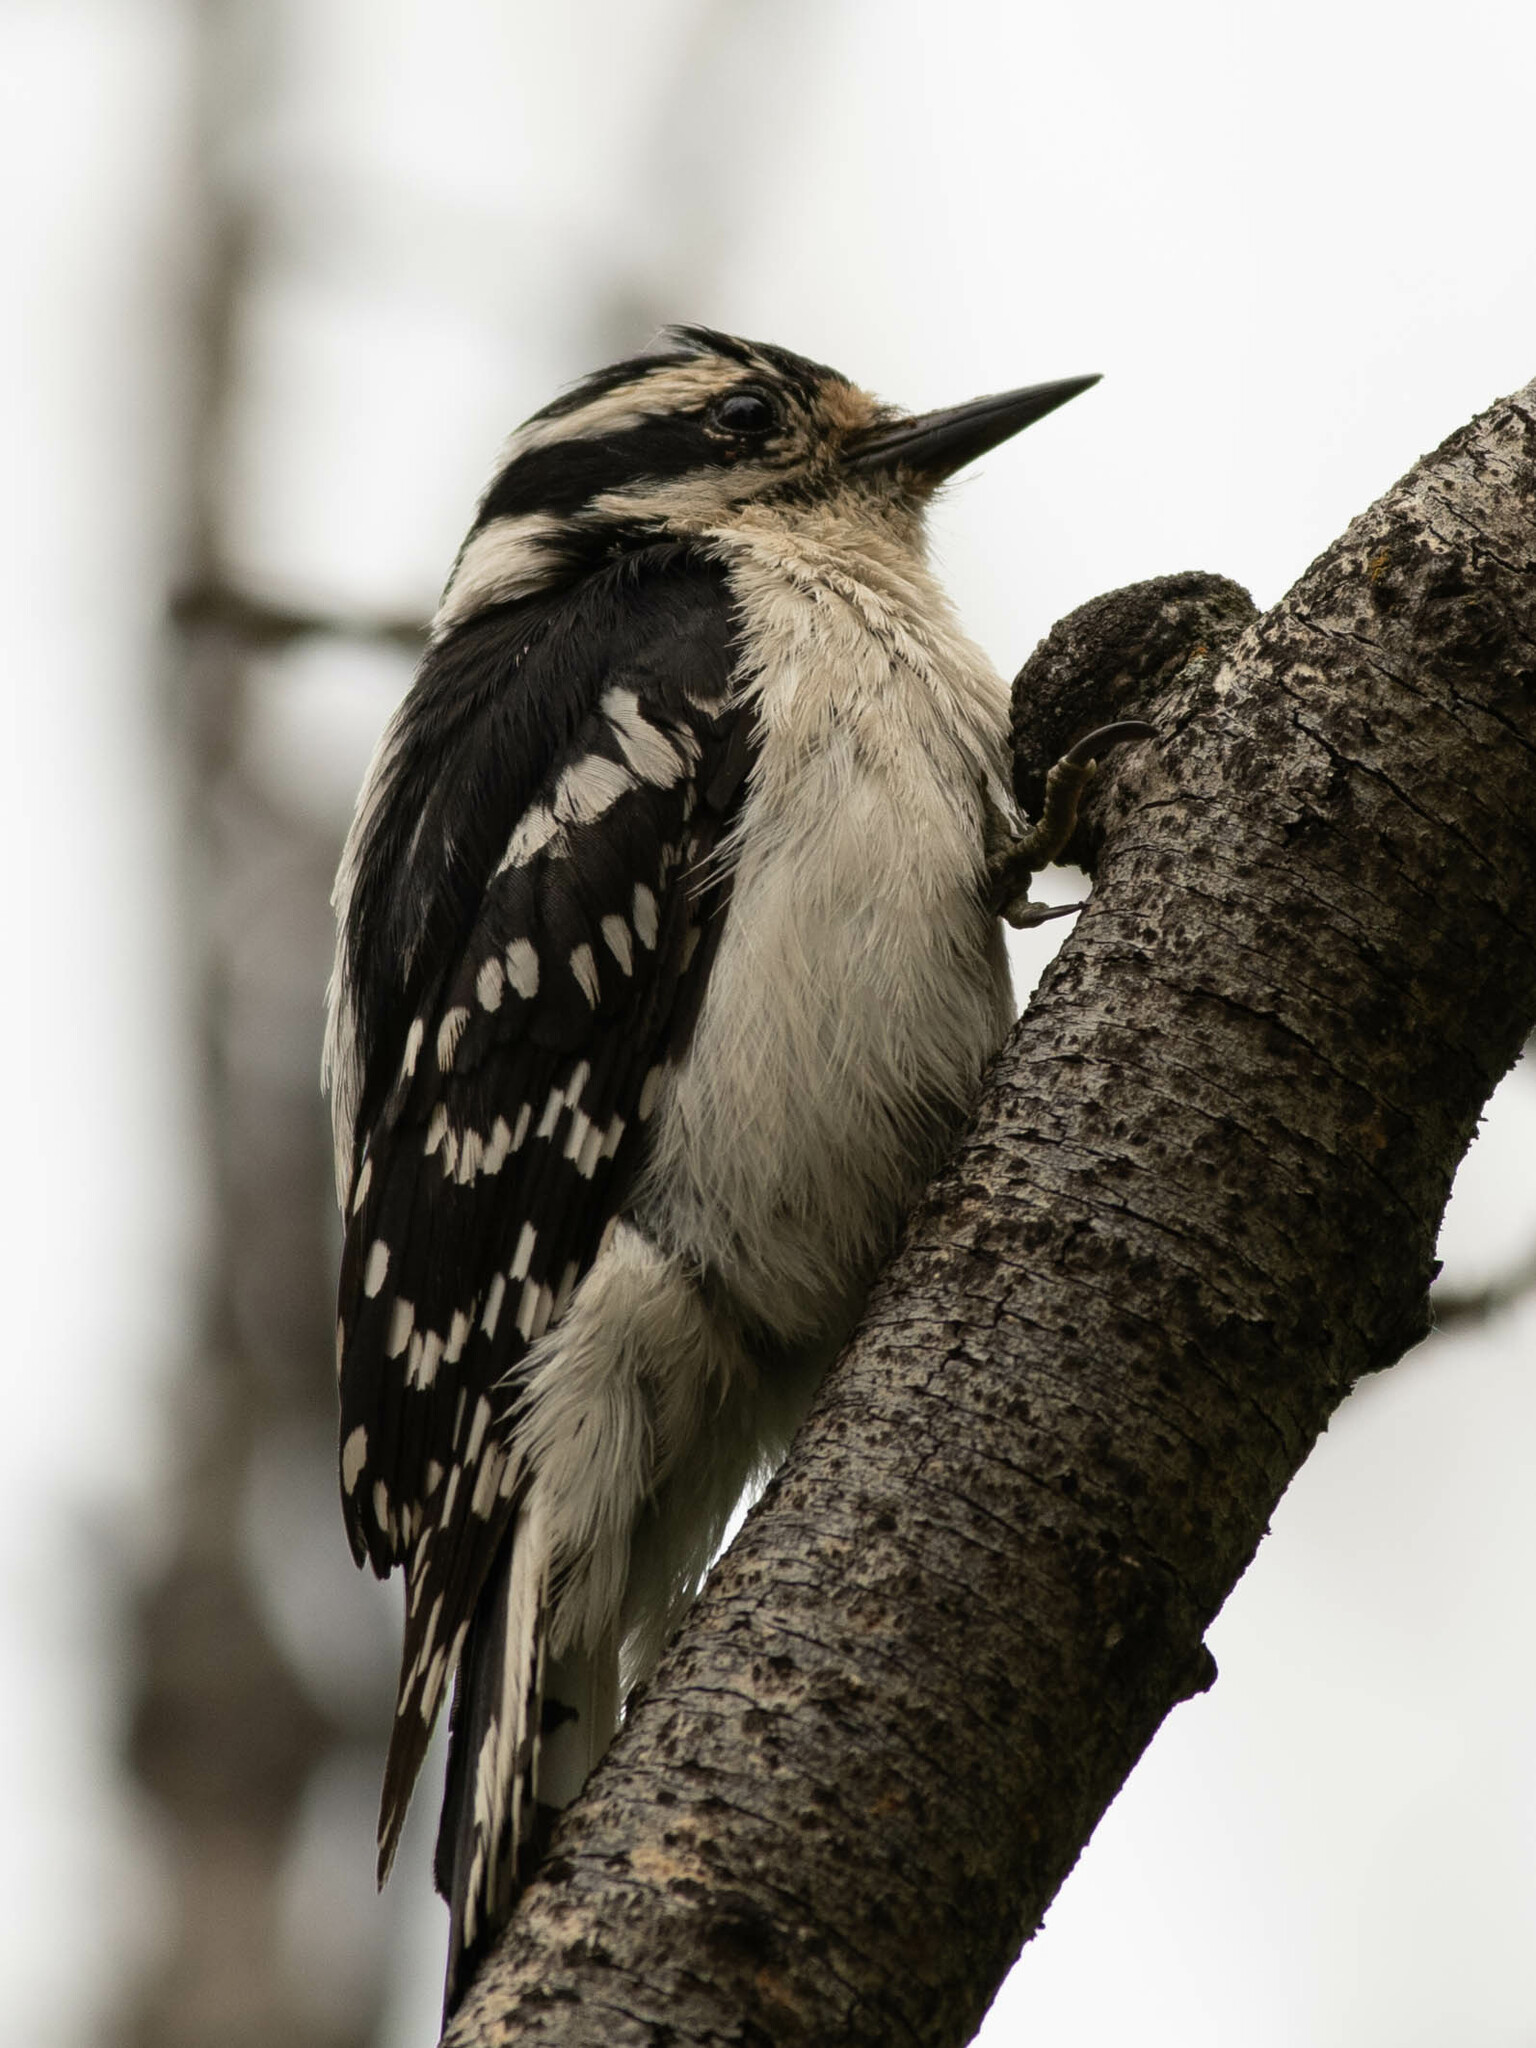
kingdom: Animalia
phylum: Chordata
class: Aves
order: Piciformes
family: Picidae
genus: Dryobates
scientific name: Dryobates pubescens
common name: Downy woodpecker
